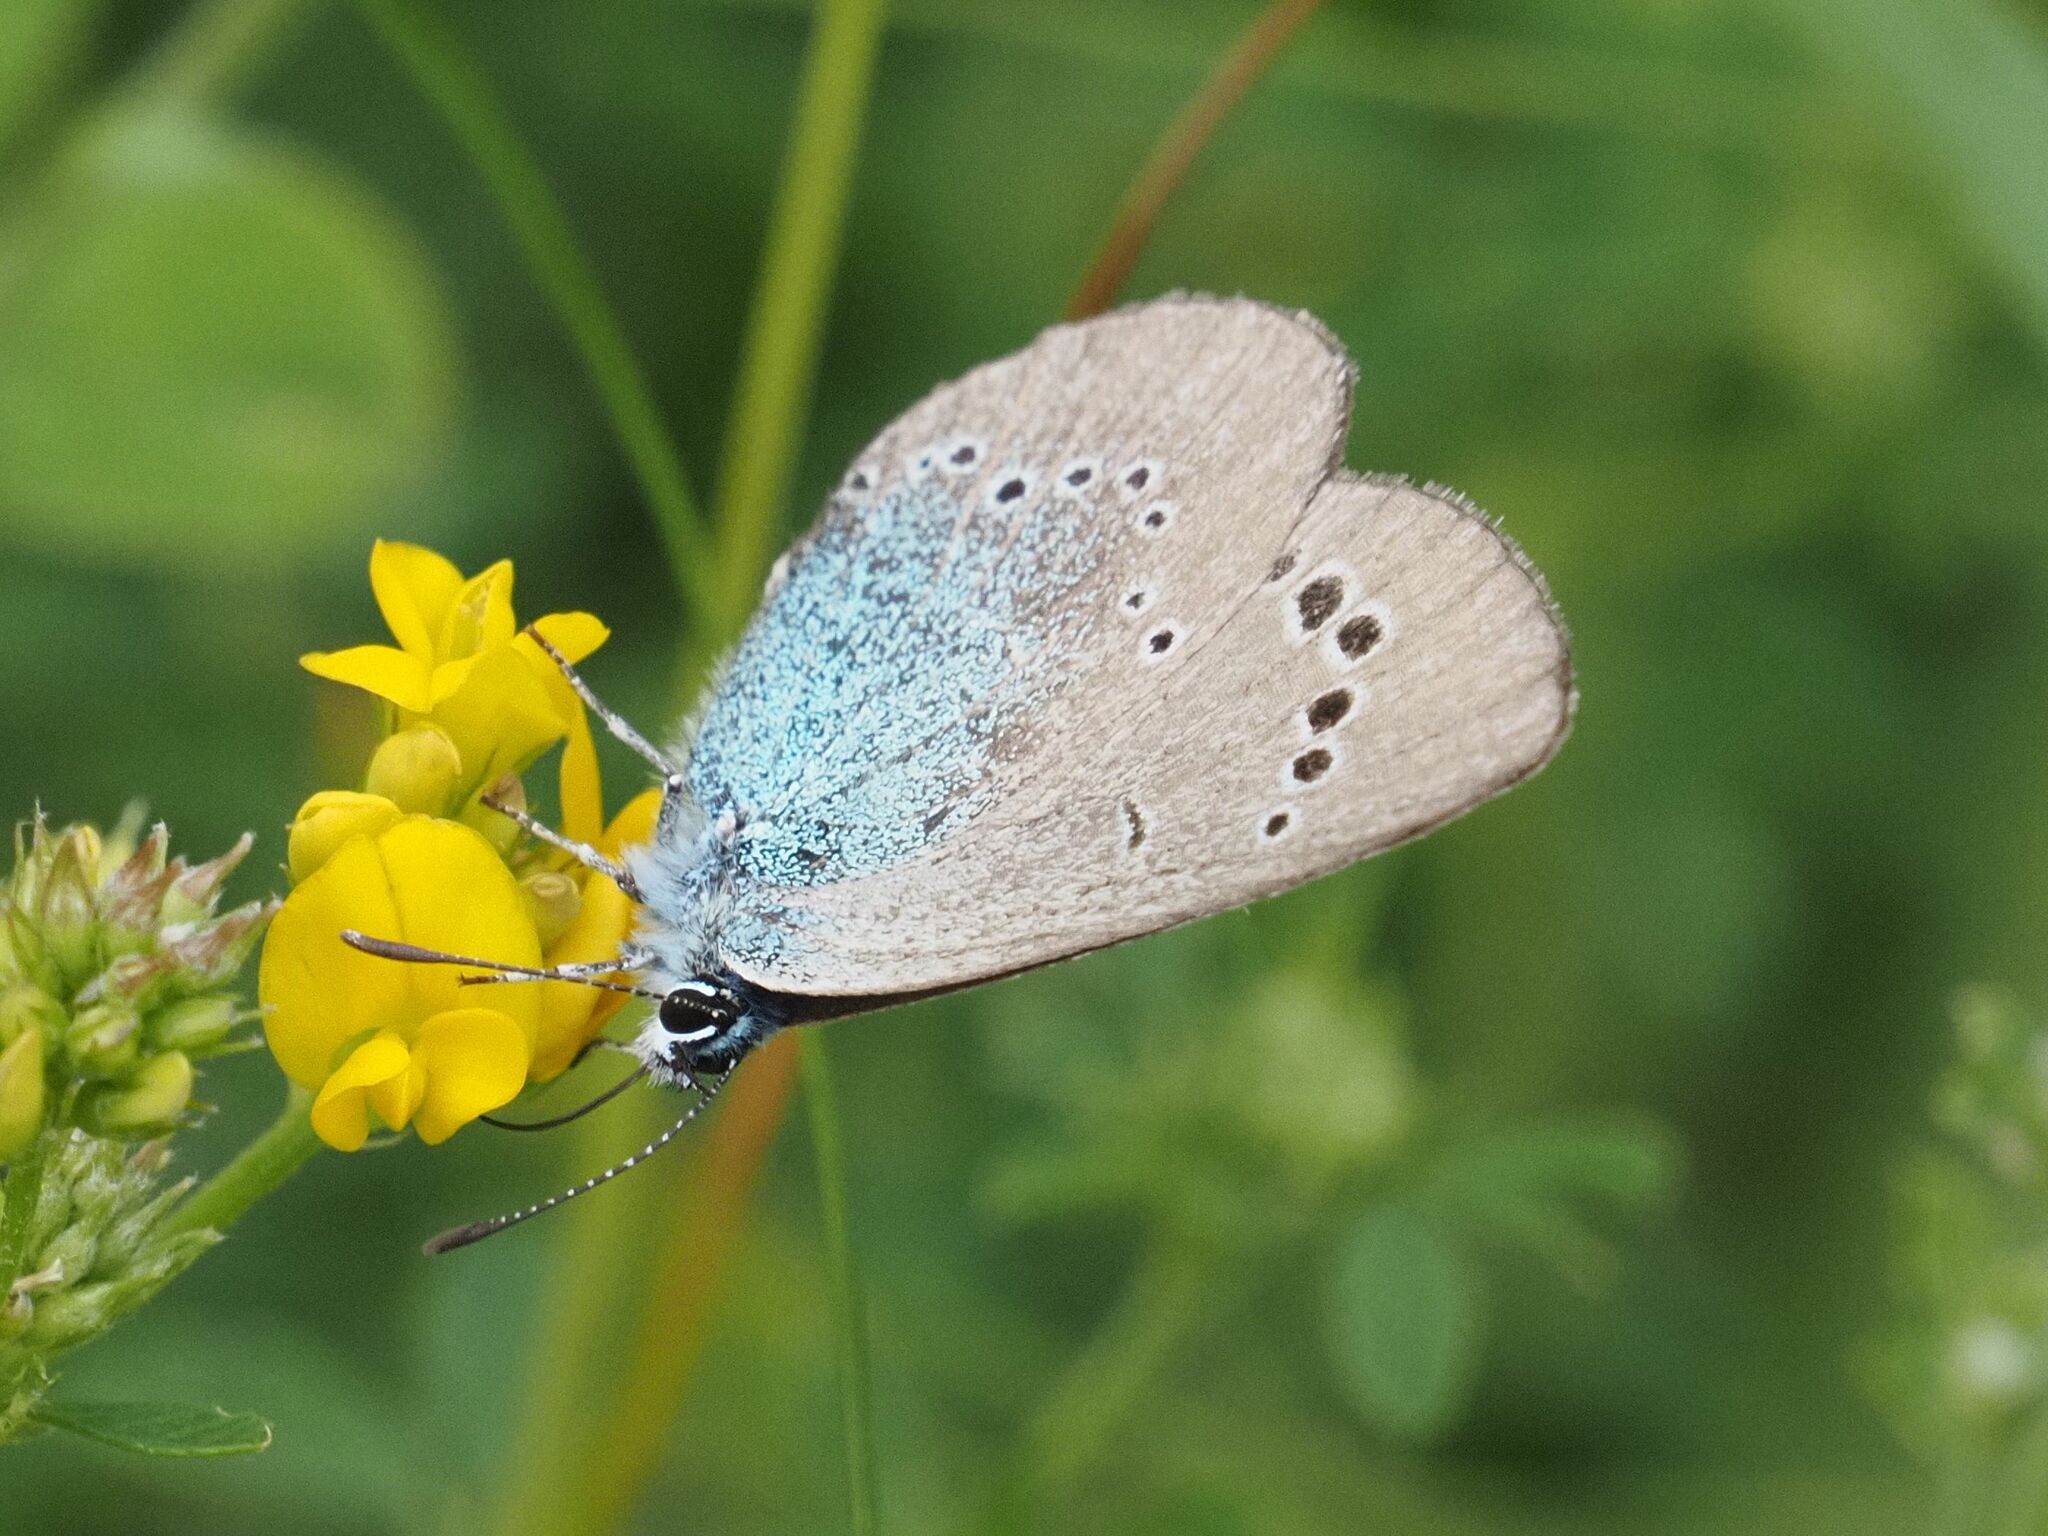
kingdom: Animalia
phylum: Arthropoda
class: Insecta
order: Lepidoptera
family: Lycaenidae
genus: Glaucopsyche
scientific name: Glaucopsyche alexis
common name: Green-underside blue
